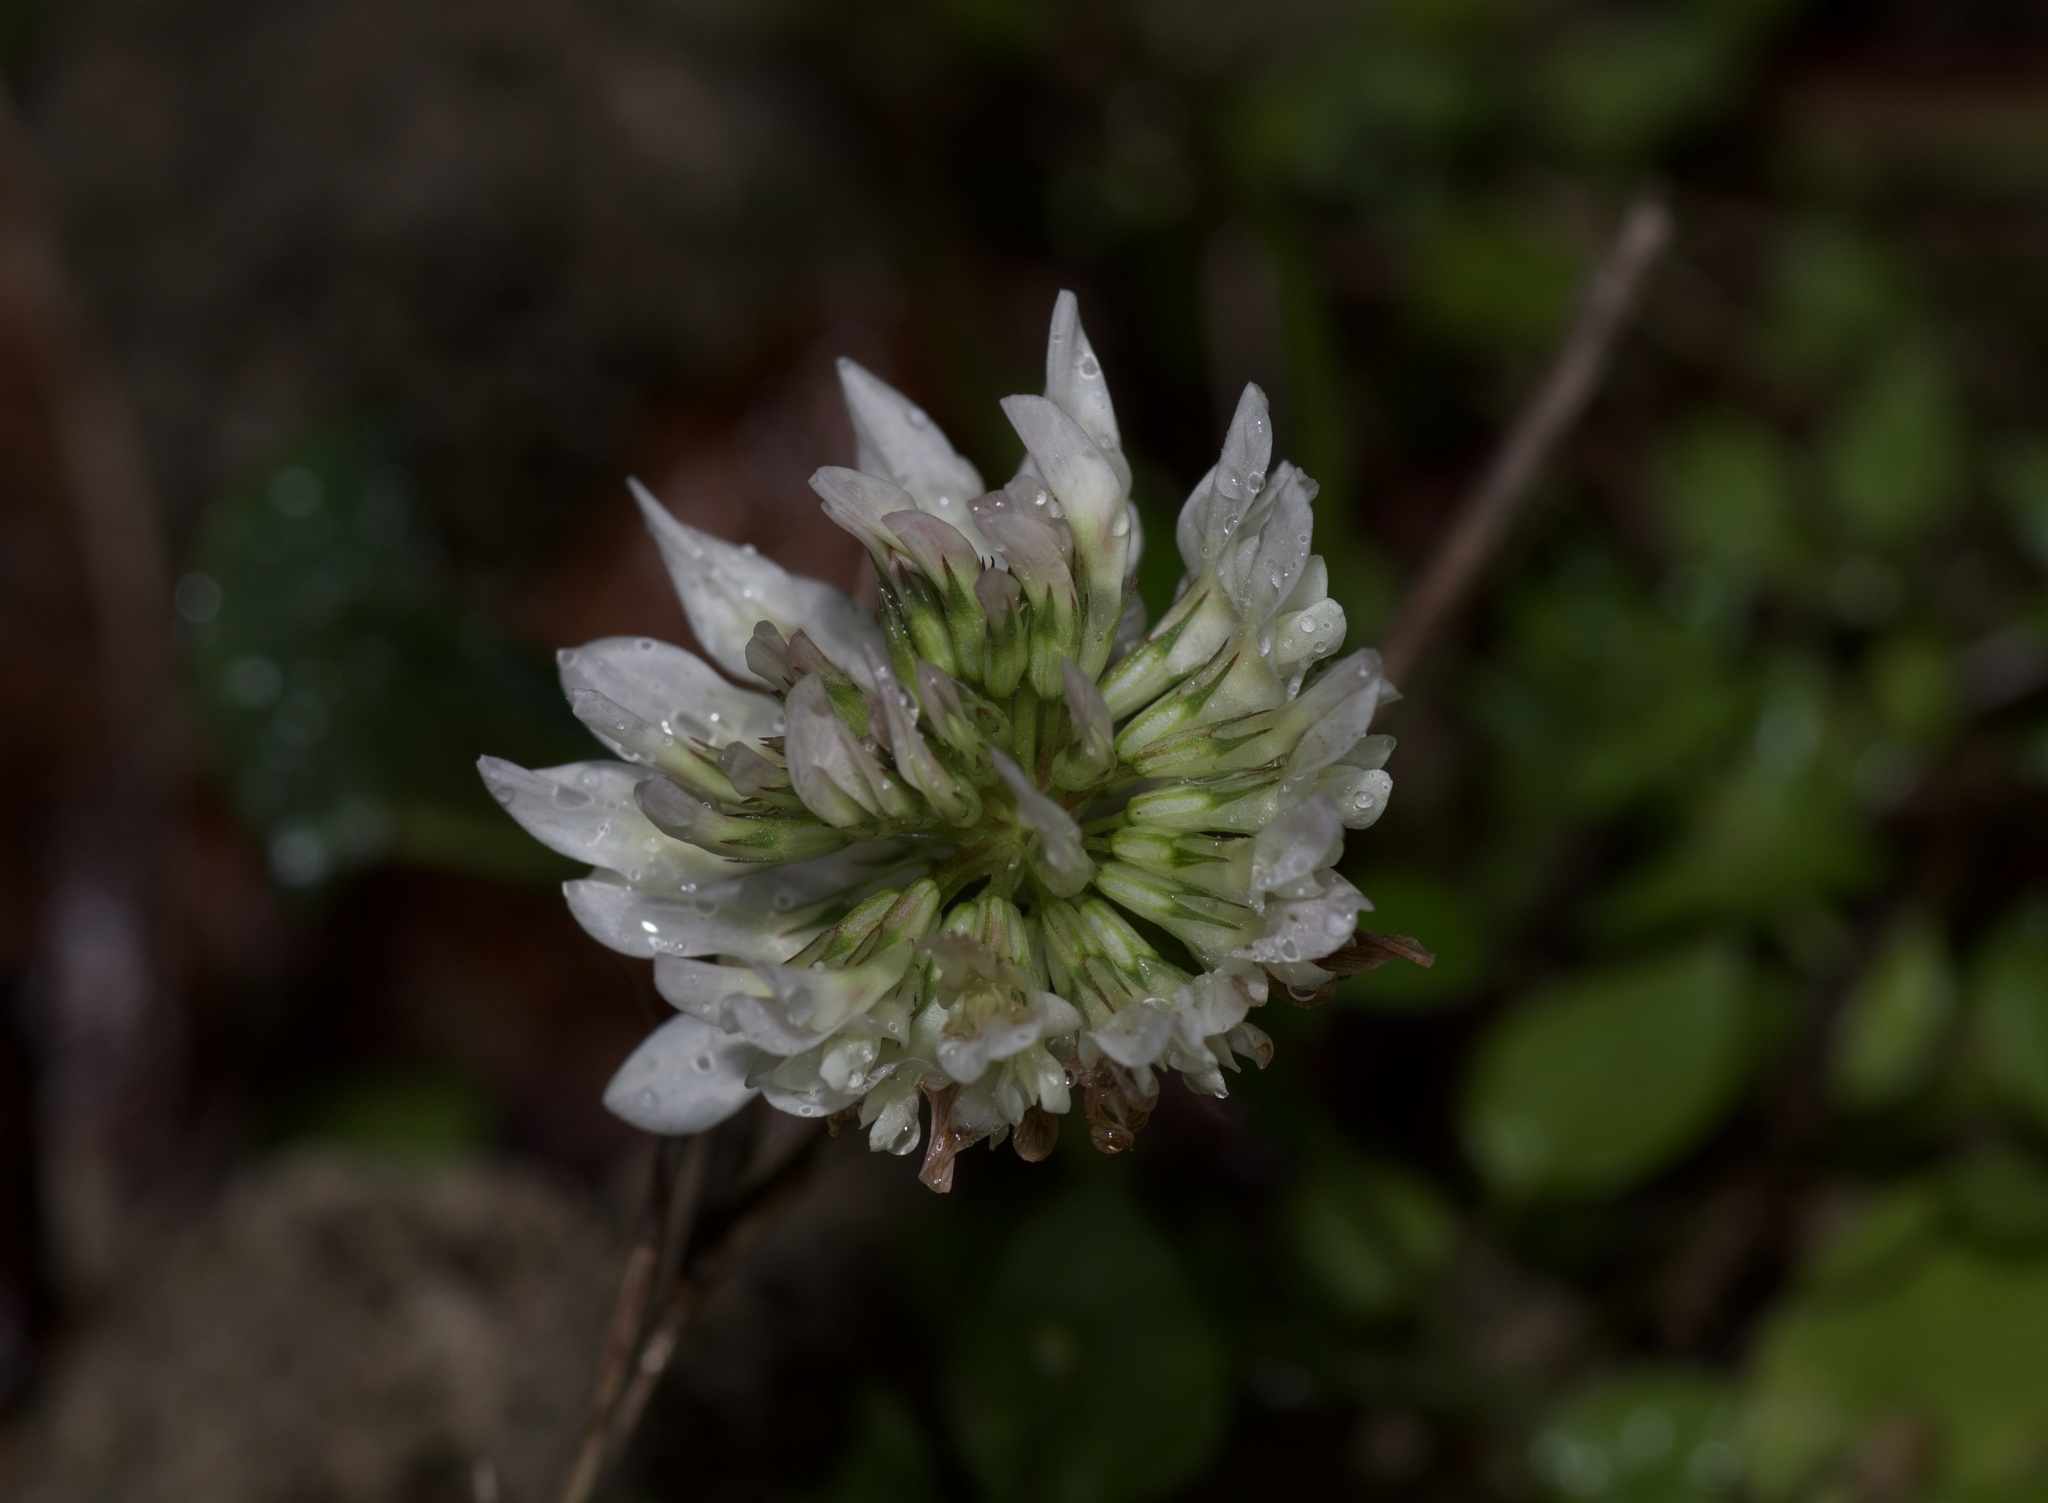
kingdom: Plantae
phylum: Tracheophyta
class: Magnoliopsida
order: Fabales
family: Fabaceae
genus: Trifolium
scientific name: Trifolium repens
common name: White clover
